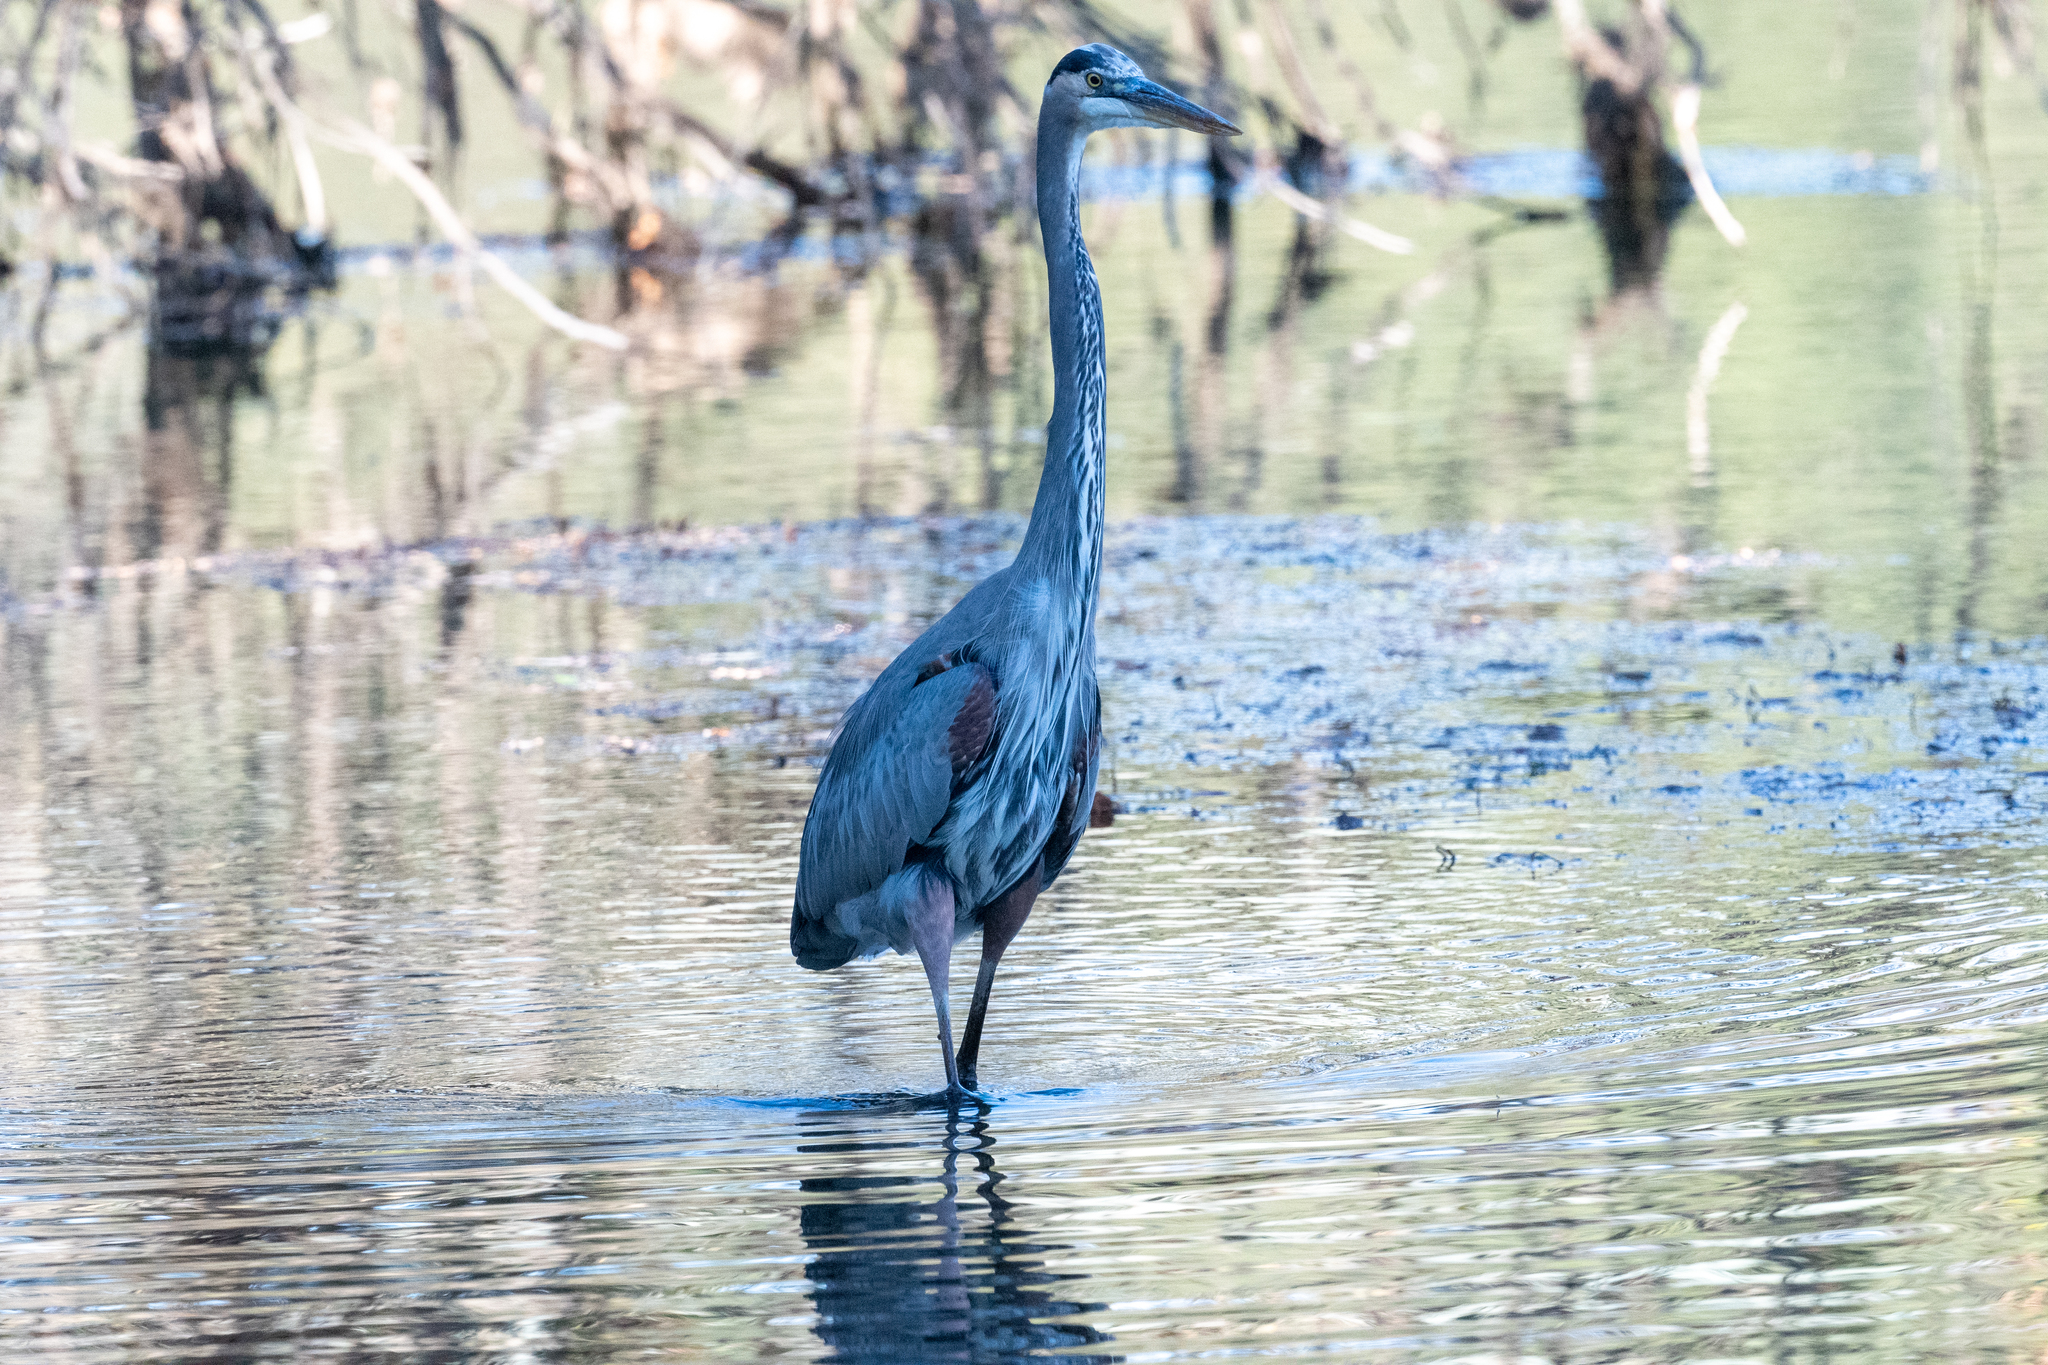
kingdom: Animalia
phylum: Chordata
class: Aves
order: Pelecaniformes
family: Ardeidae
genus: Ardea
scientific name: Ardea herodias
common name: Great blue heron
